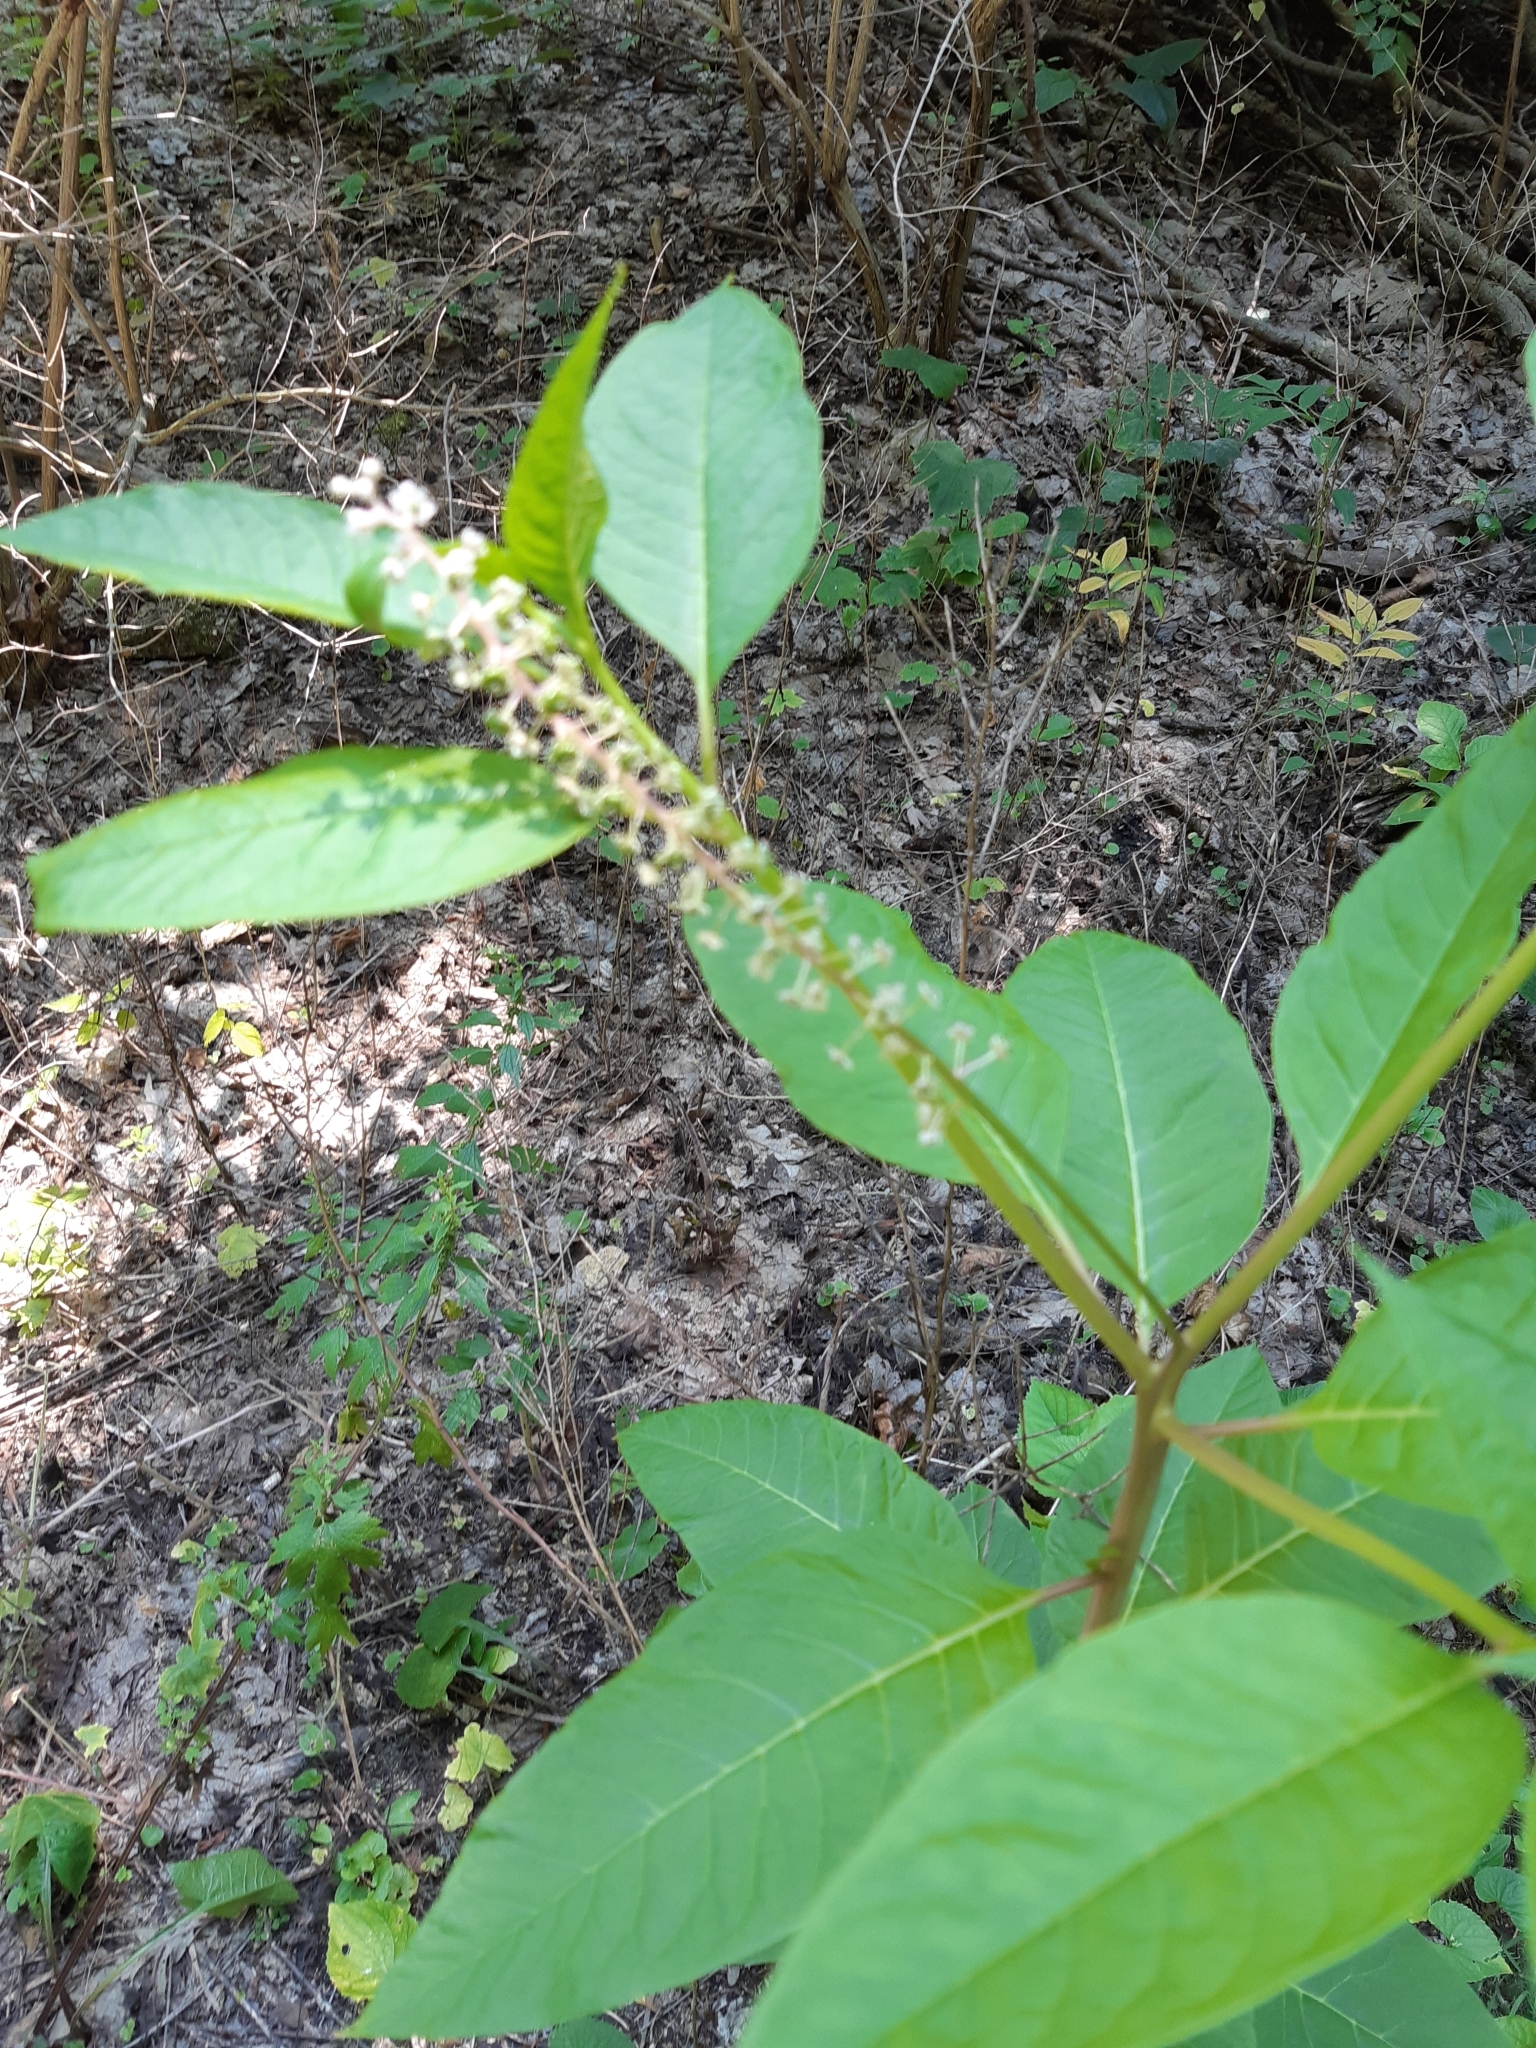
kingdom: Plantae
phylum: Tracheophyta
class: Magnoliopsida
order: Caryophyllales
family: Phytolaccaceae
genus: Phytolacca
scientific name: Phytolacca americana
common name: American pokeweed
